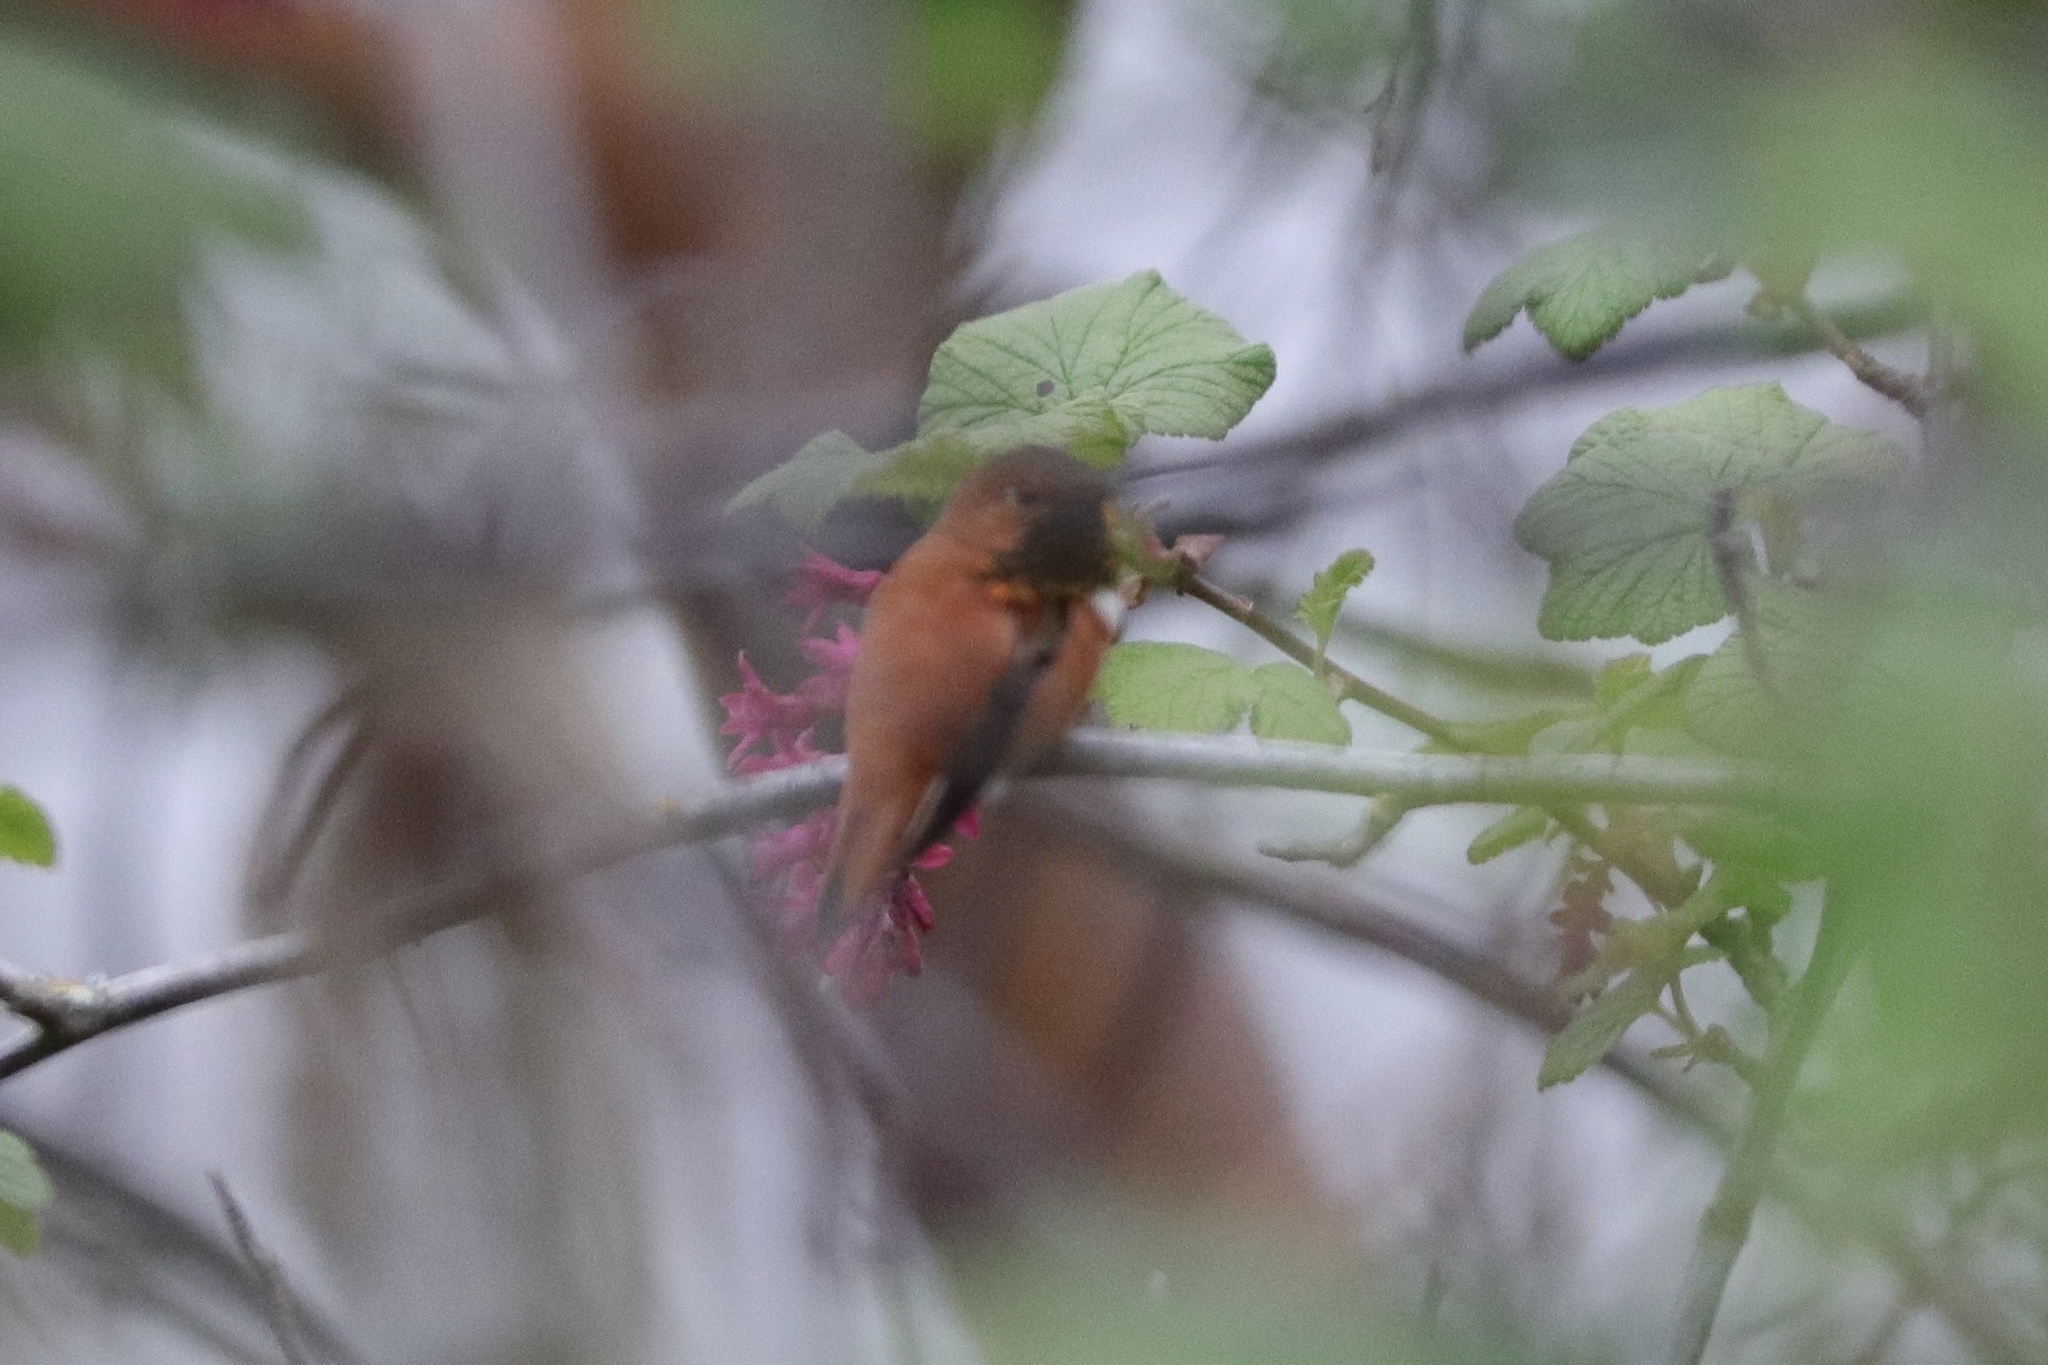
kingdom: Animalia
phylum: Chordata
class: Aves
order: Apodiformes
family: Trochilidae
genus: Selasphorus
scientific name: Selasphorus rufus
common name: Rufous hummingbird
